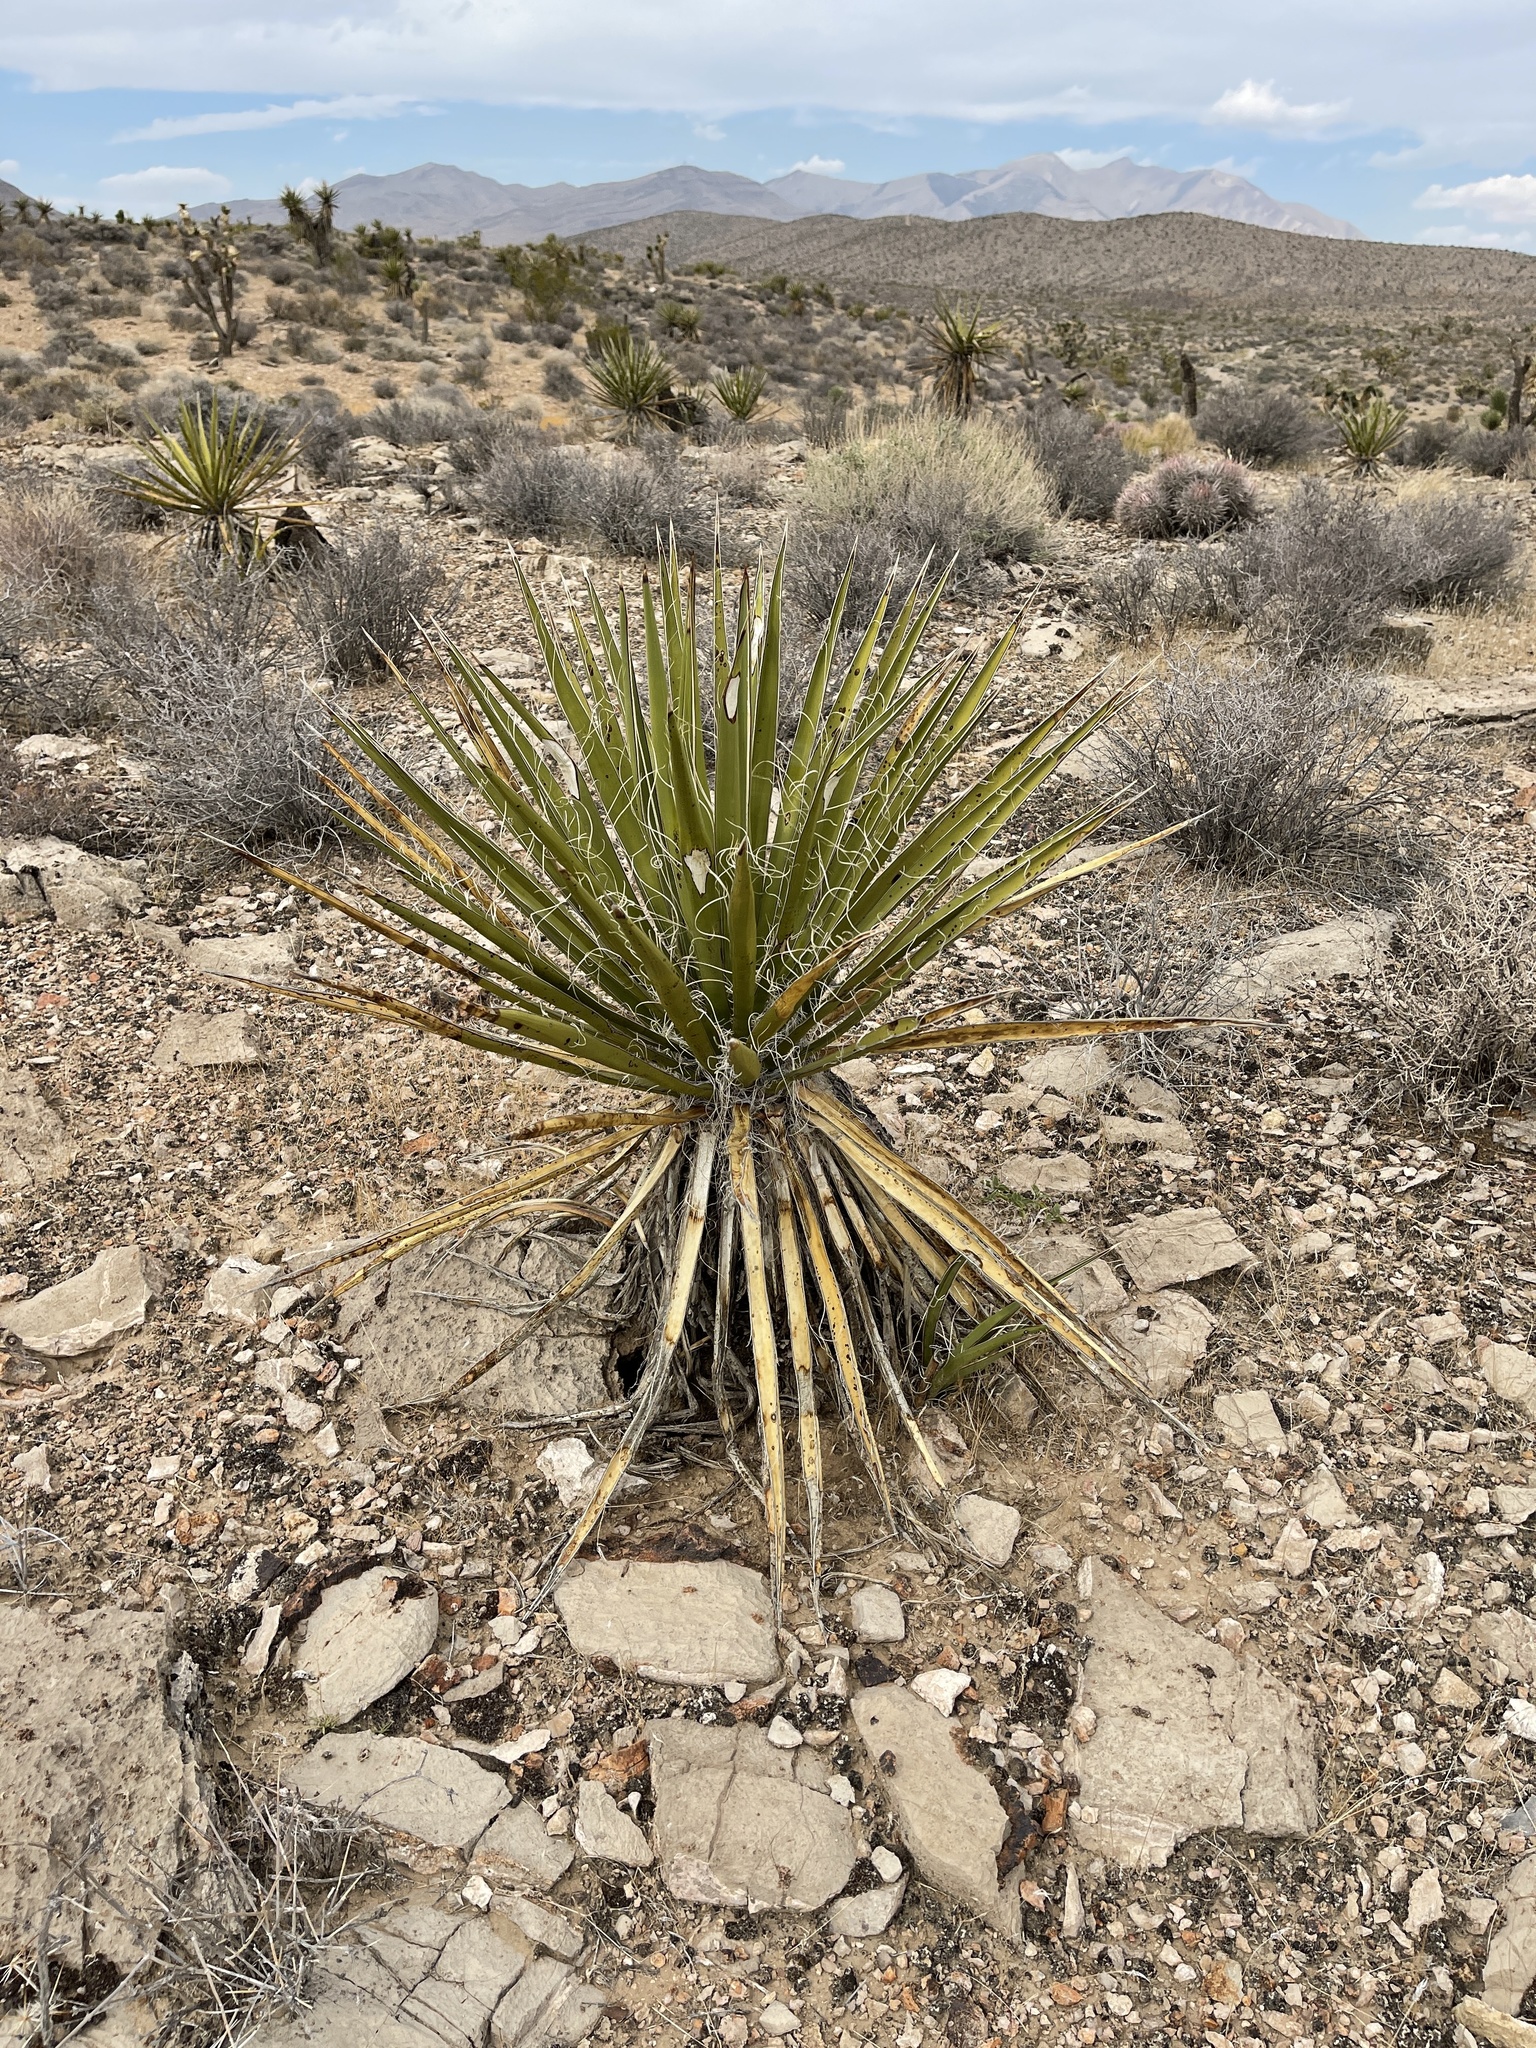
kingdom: Plantae
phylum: Tracheophyta
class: Liliopsida
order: Asparagales
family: Asparagaceae
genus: Yucca
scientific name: Yucca schidigera
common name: Mojave yucca
